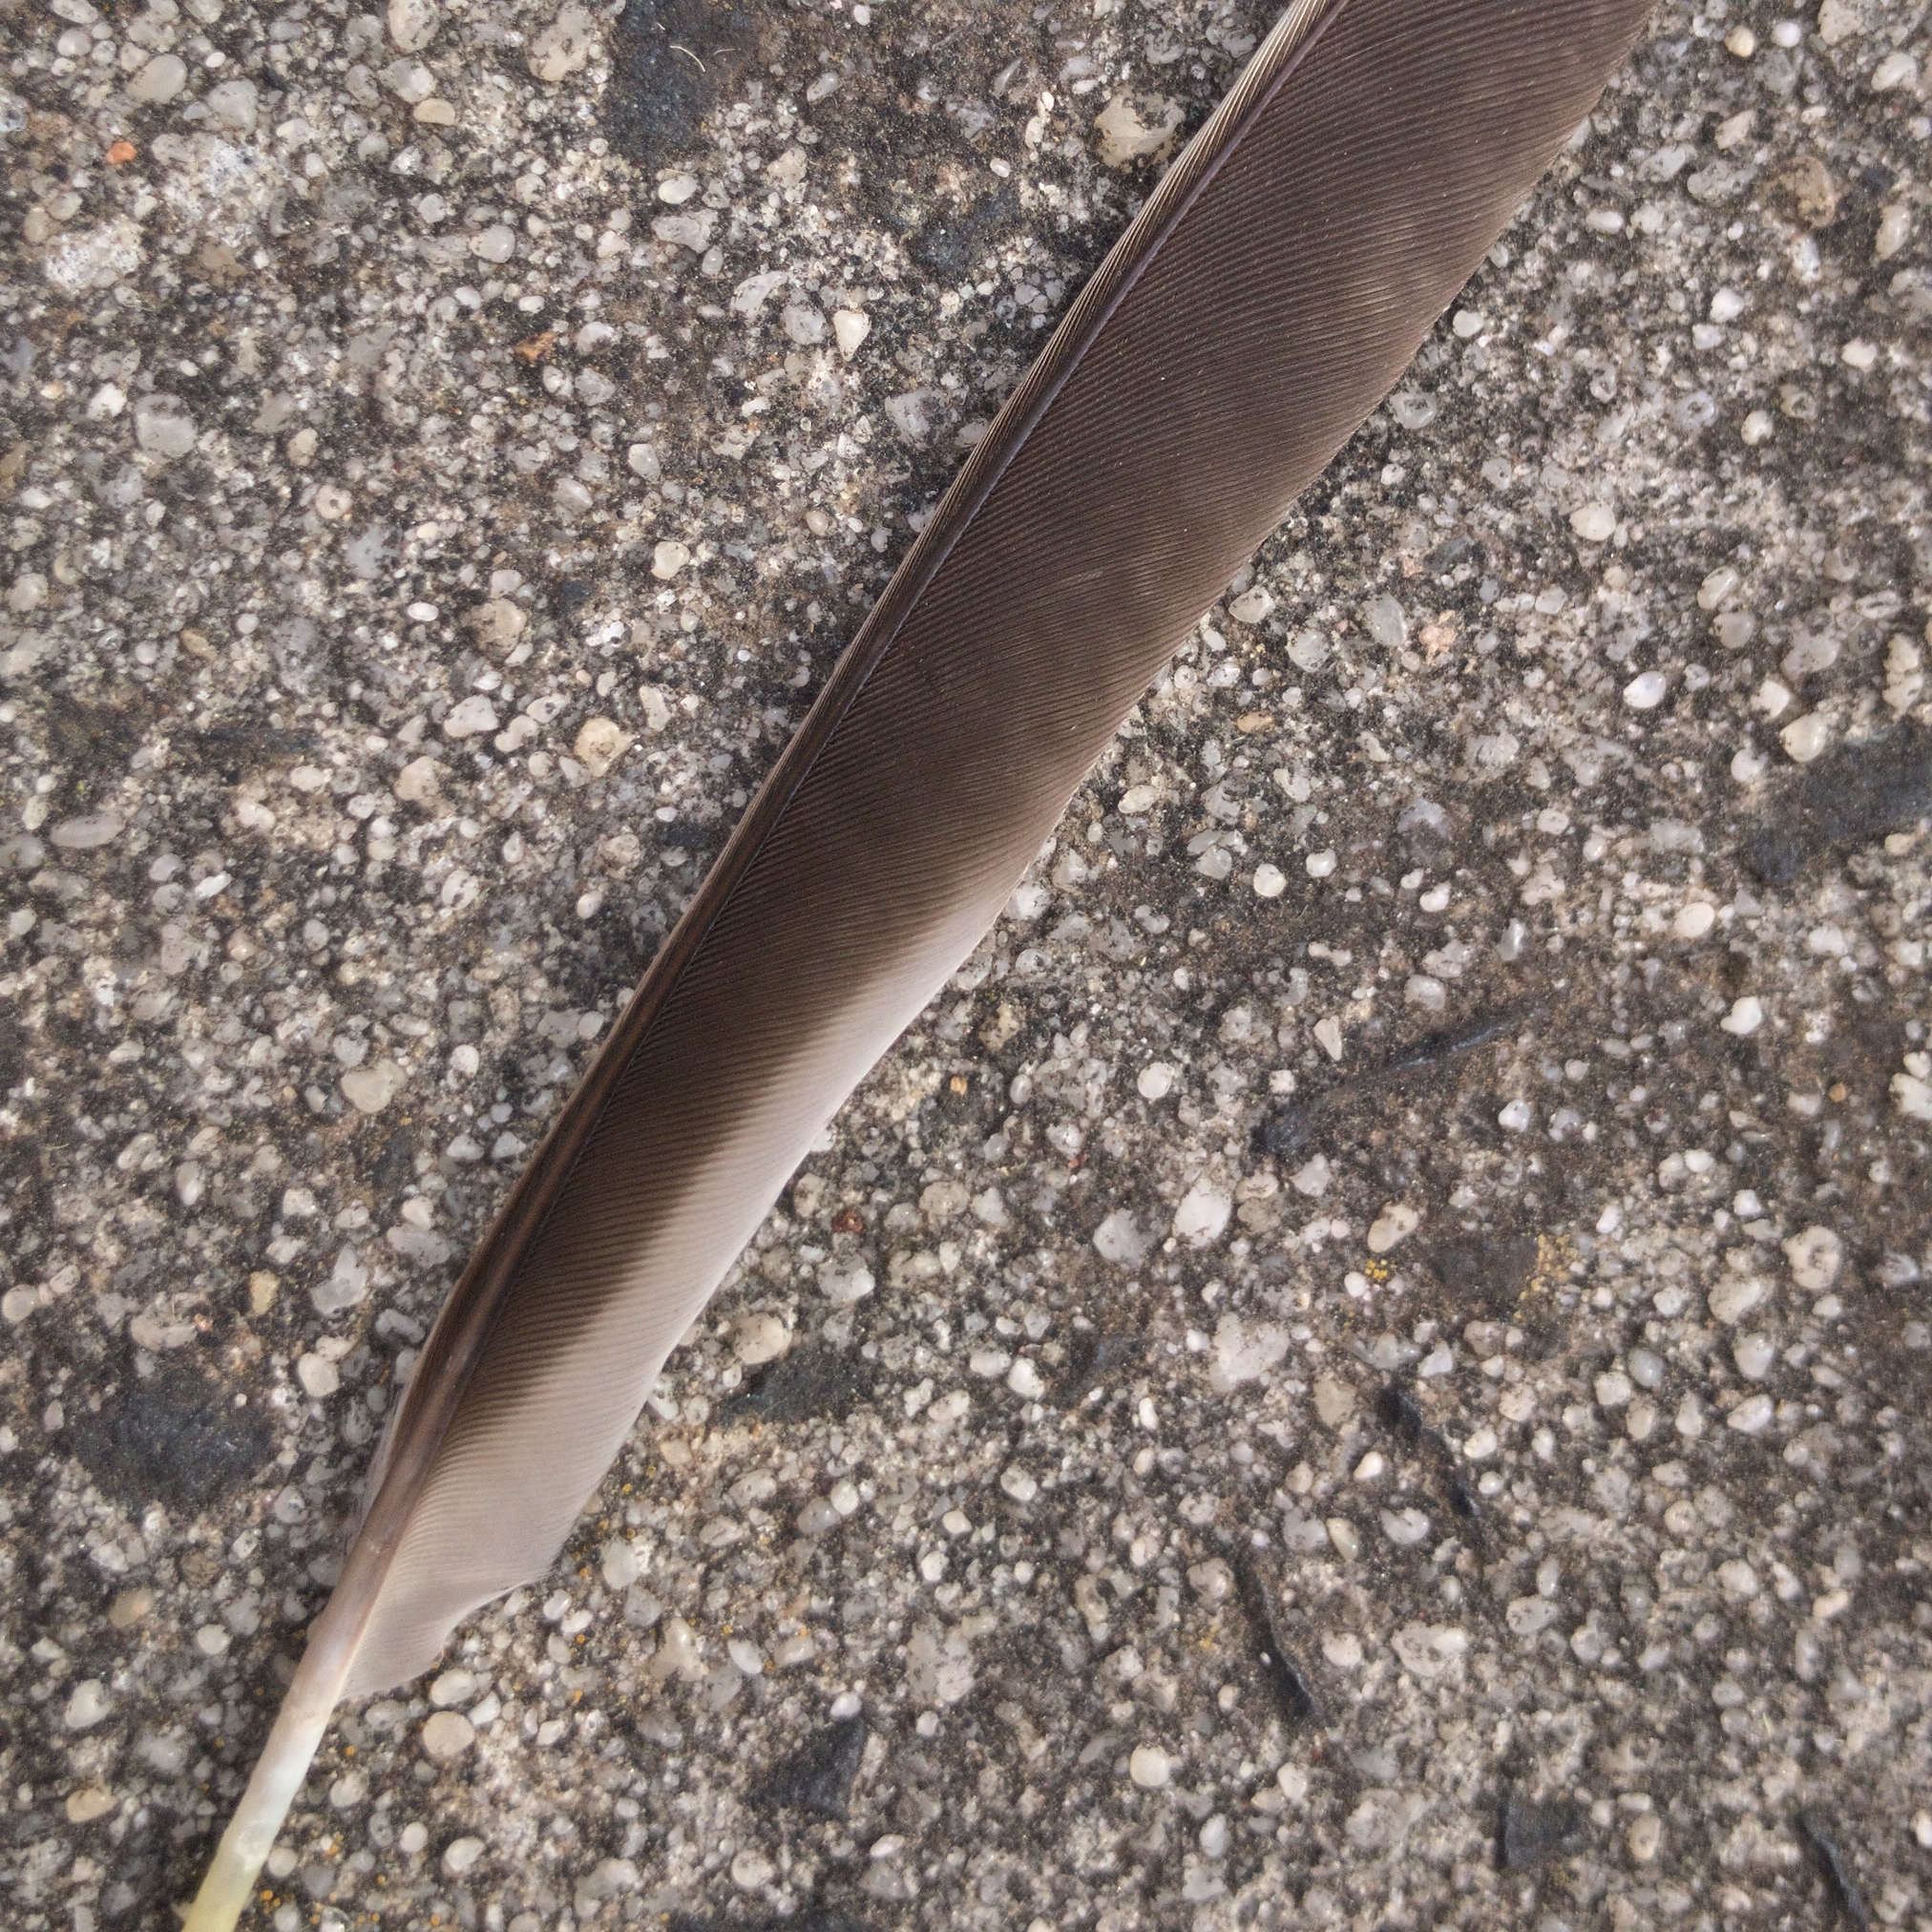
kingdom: Animalia
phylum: Chordata
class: Aves
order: Passeriformes
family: Meliphagidae
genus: Anthochaera
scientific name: Anthochaera carunculata
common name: Red wattlebird
